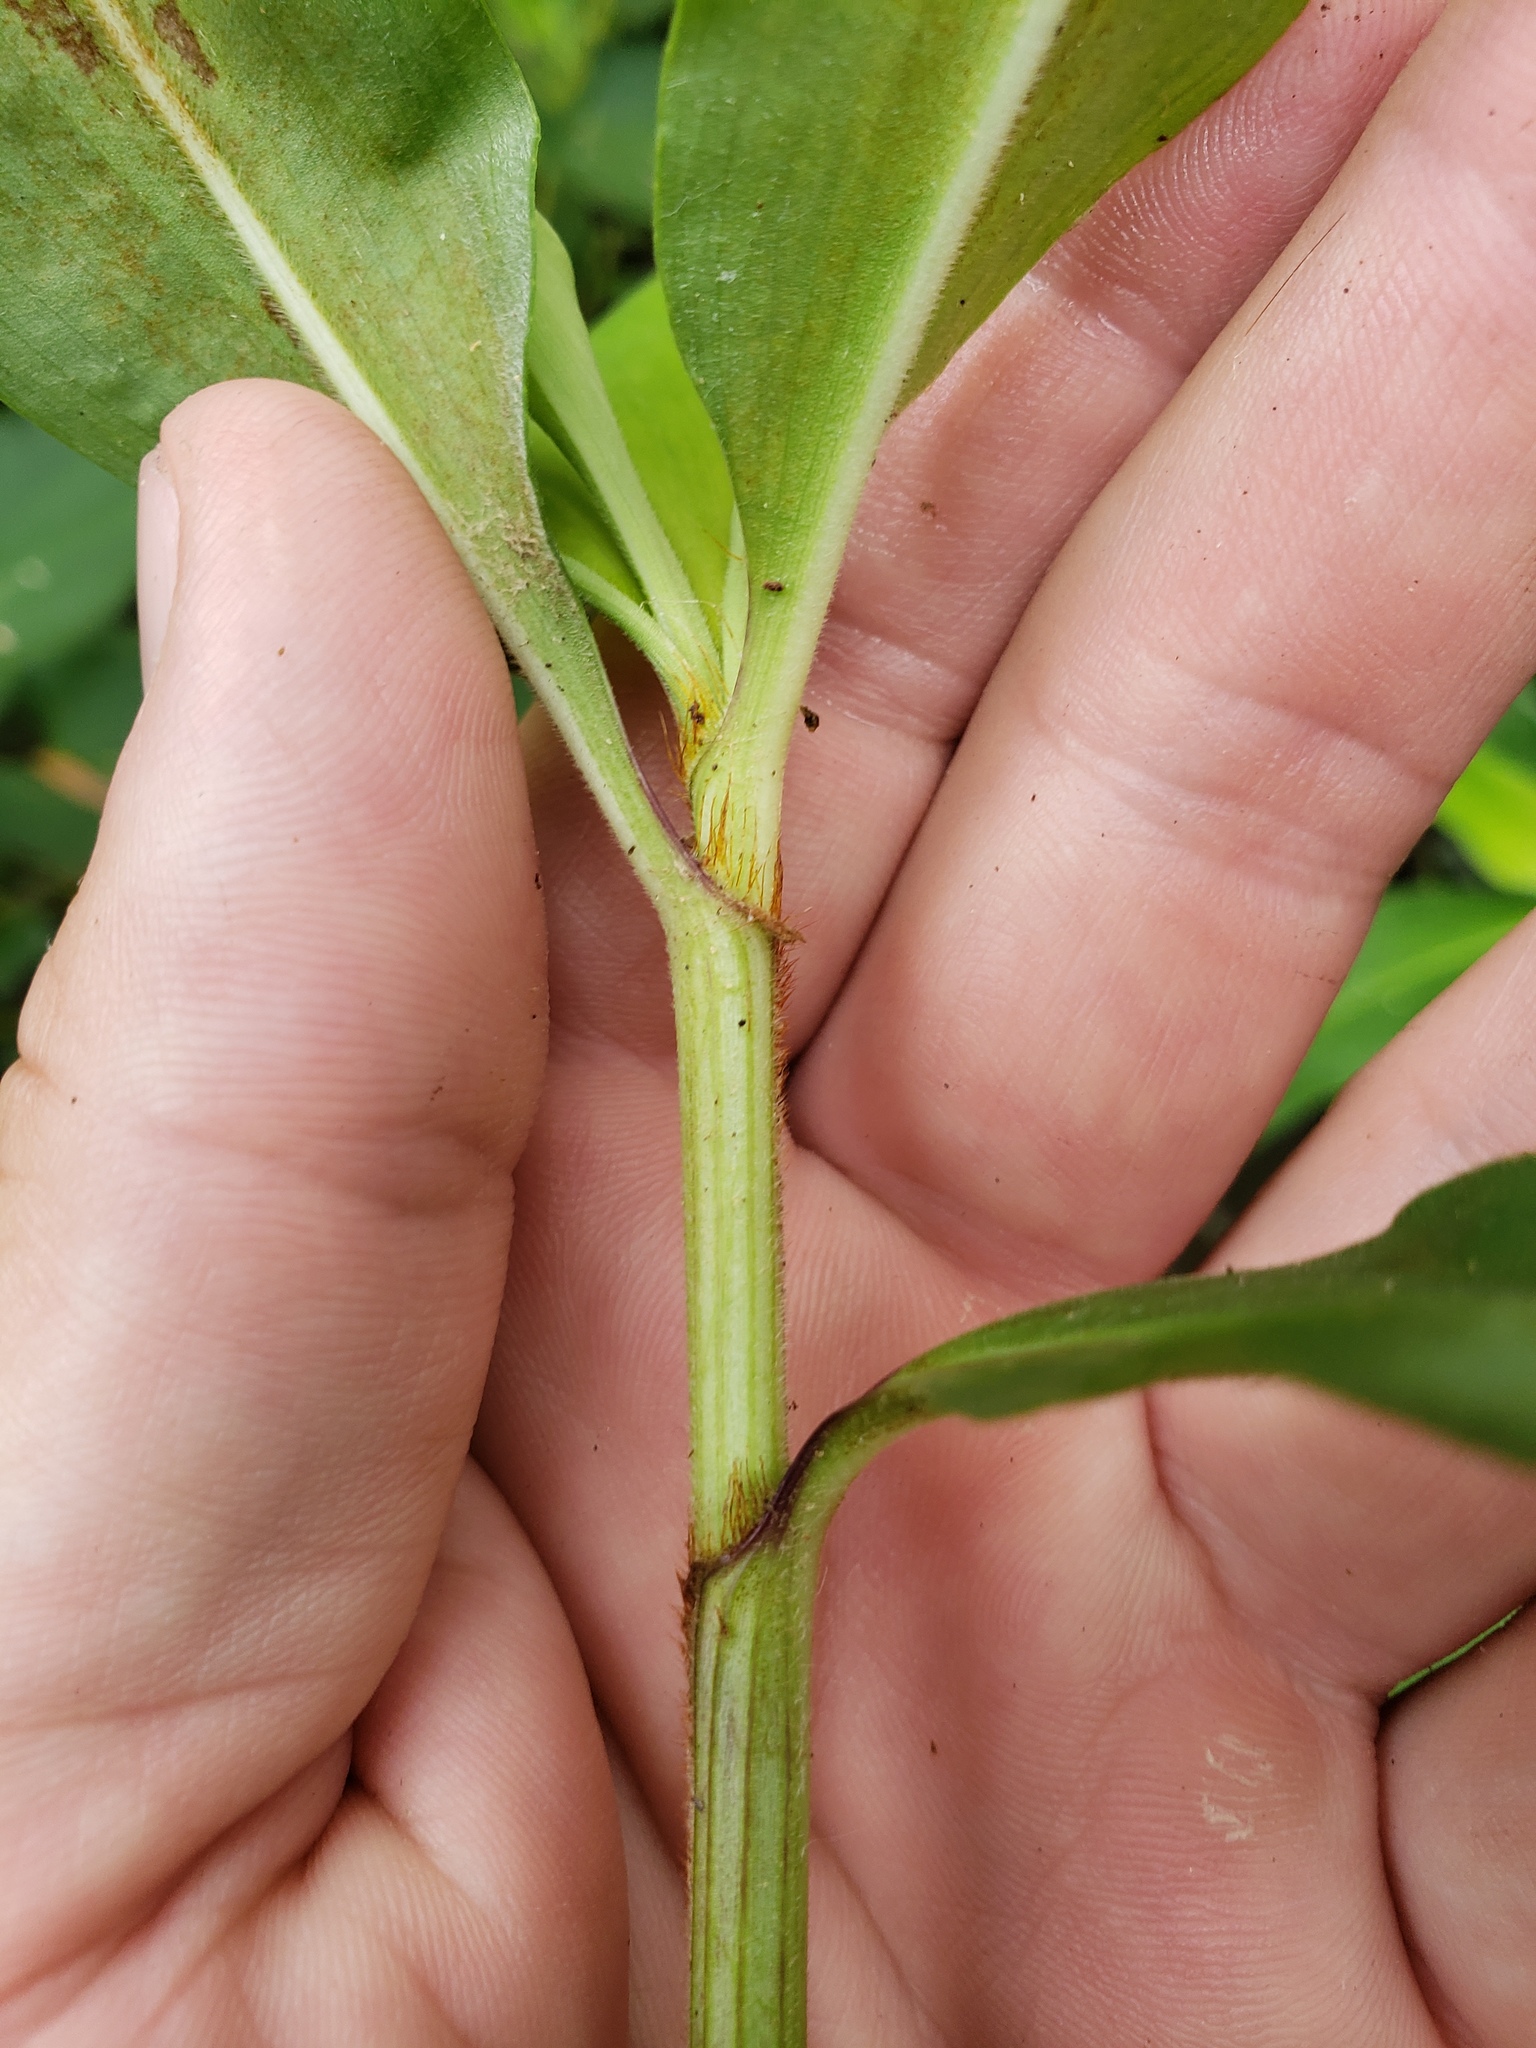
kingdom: Plantae
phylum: Tracheophyta
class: Liliopsida
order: Commelinales
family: Commelinaceae
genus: Commelina
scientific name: Commelina virginica
